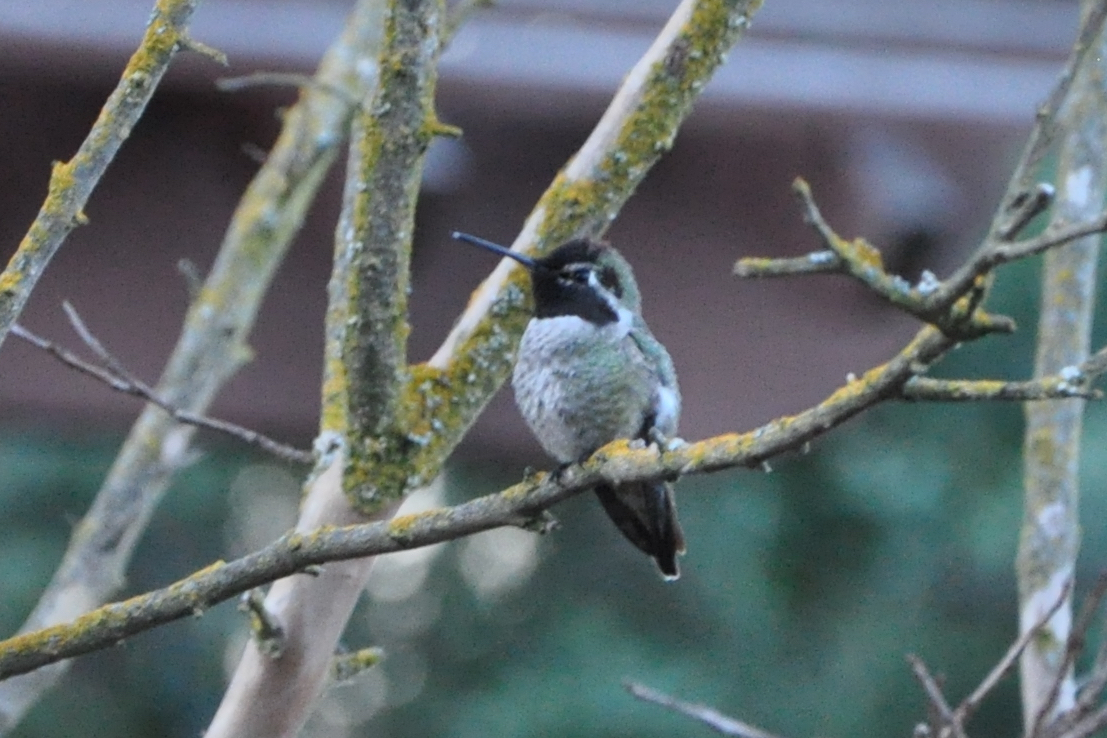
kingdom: Animalia
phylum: Chordata
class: Aves
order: Apodiformes
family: Trochilidae
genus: Calypte
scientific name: Calypte anna
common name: Anna's hummingbird
